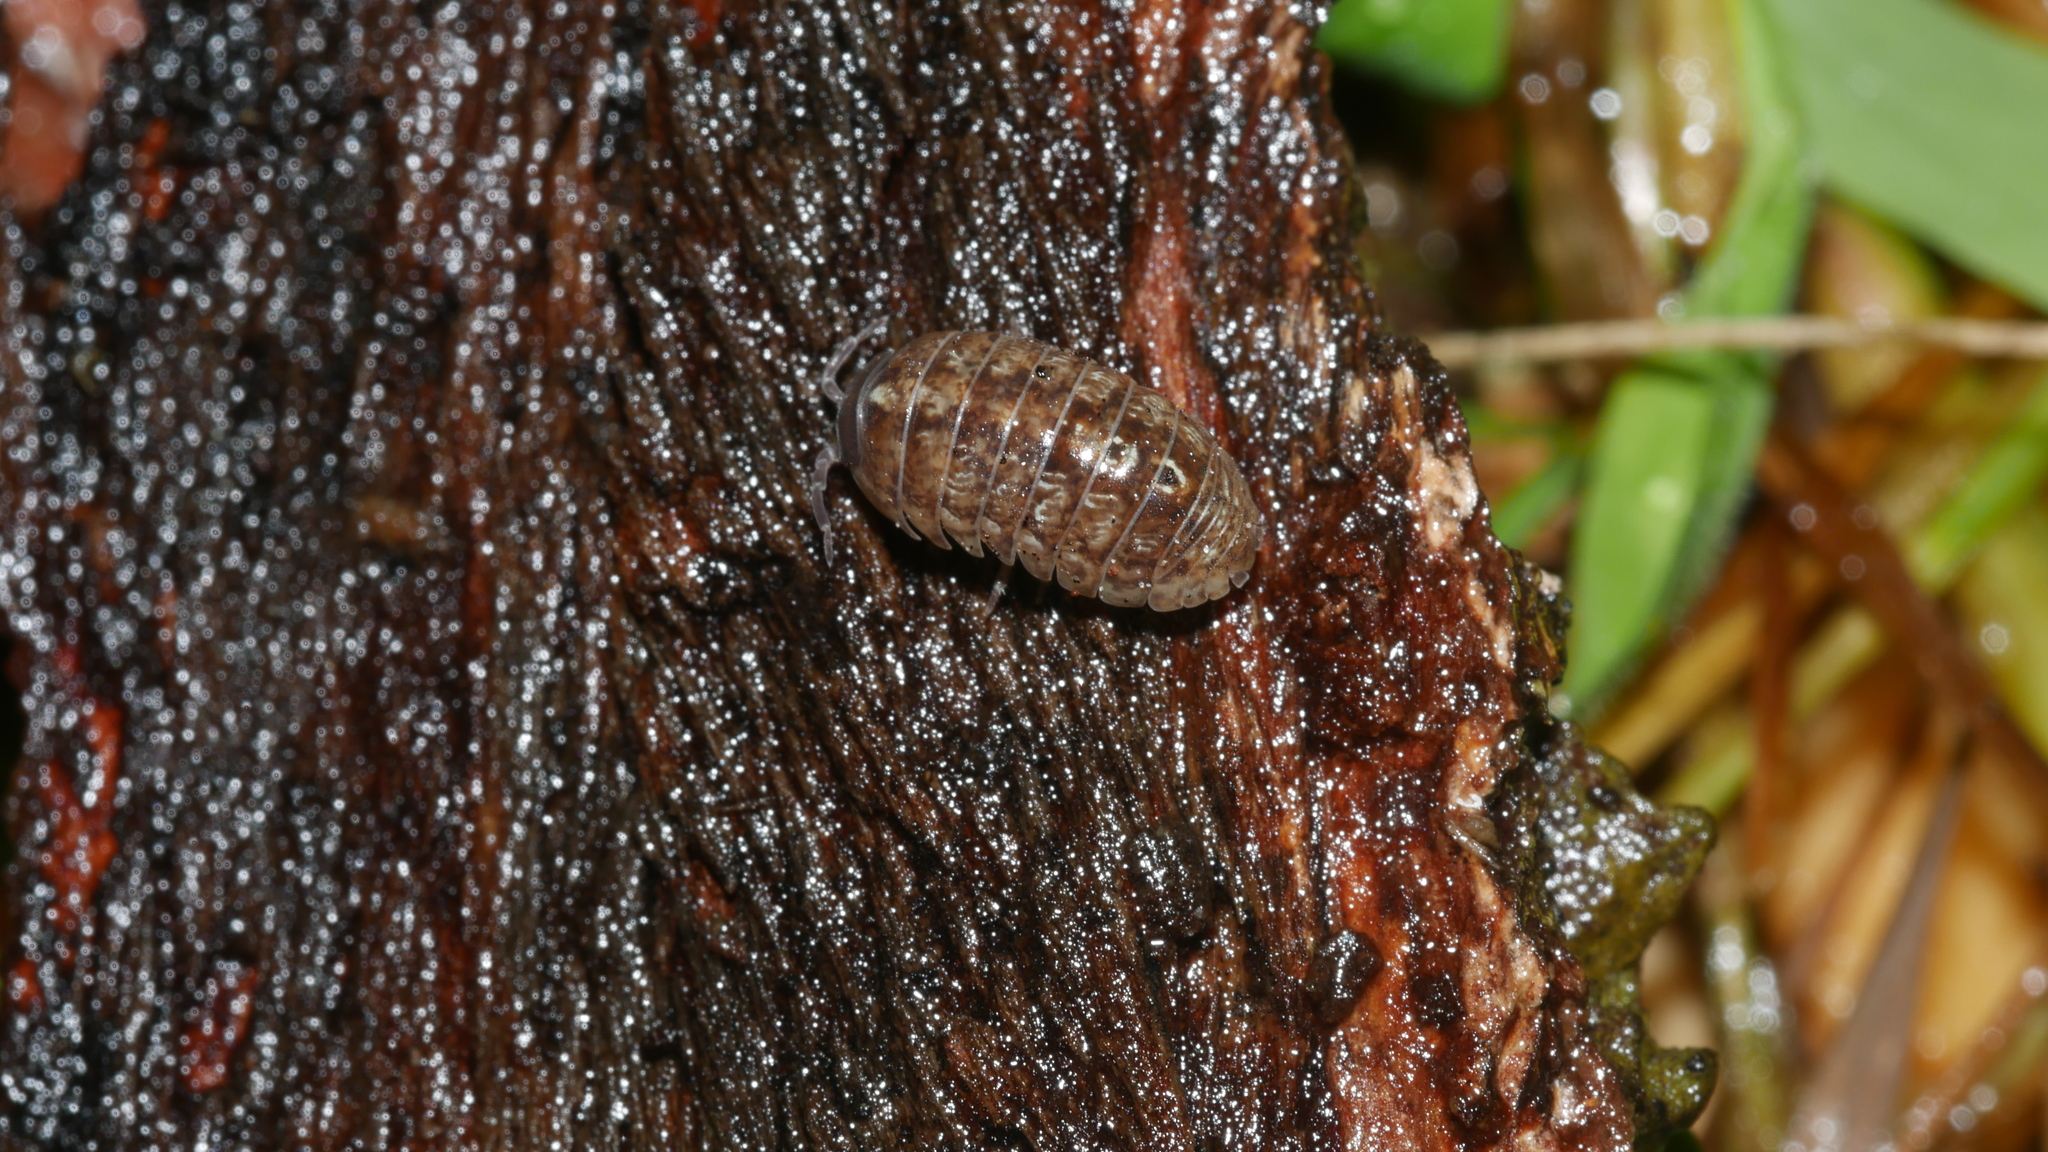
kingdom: Animalia
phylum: Arthropoda
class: Malacostraca
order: Isopoda
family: Armadillidiidae
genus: Armadillidium
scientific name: Armadillidium vulgare
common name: Common pill woodlouse
